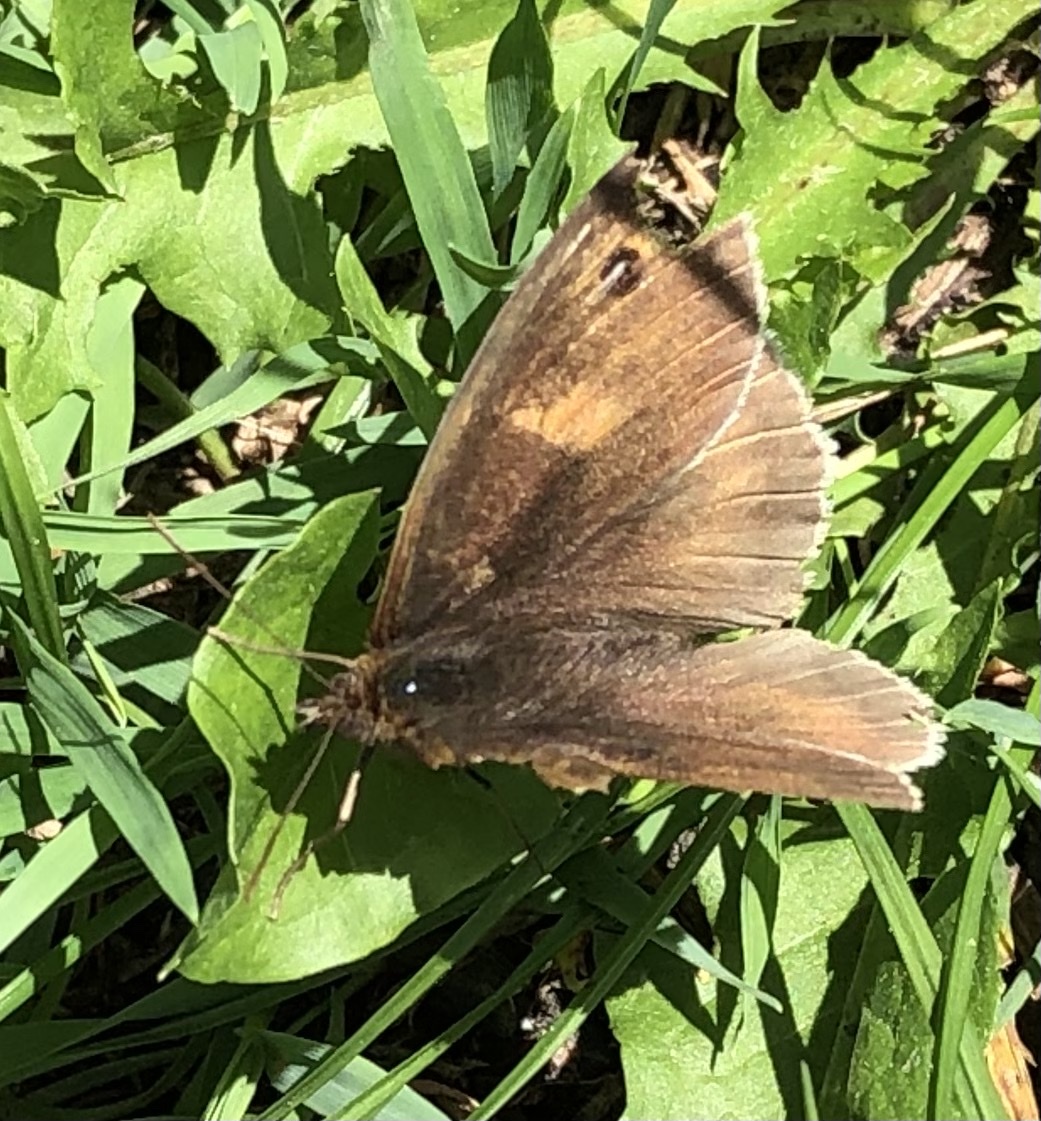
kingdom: Animalia
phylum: Arthropoda
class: Insecta
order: Lepidoptera
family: Nymphalidae
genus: Maniola
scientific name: Maniola jurtina
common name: Meadow brown
